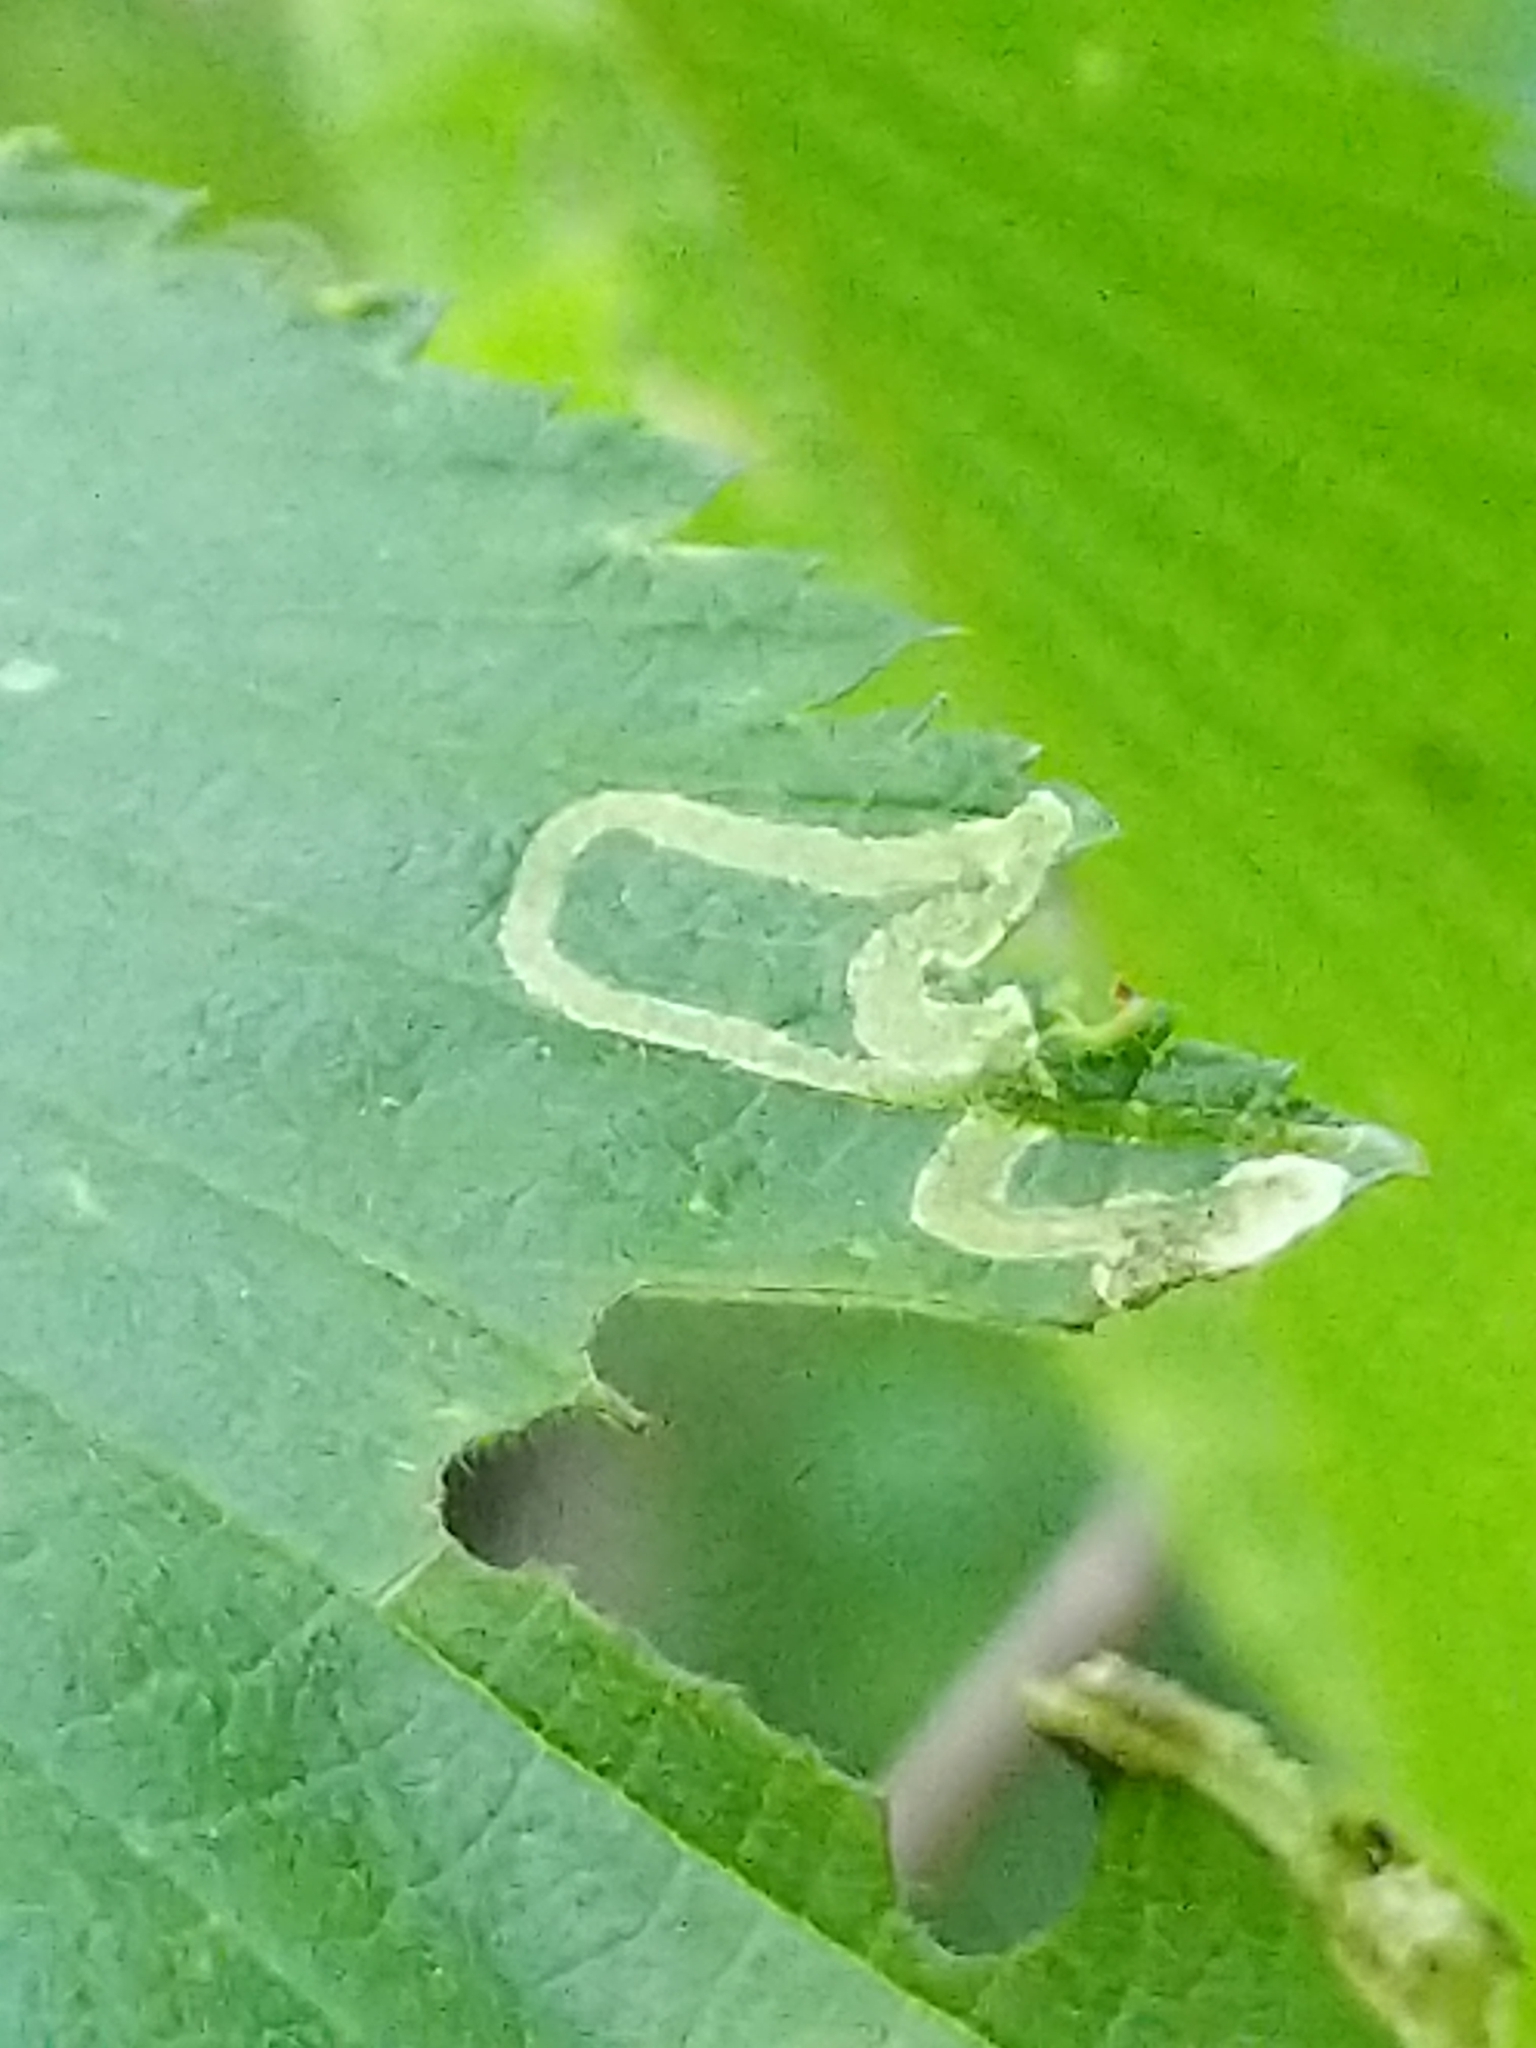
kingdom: Animalia
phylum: Arthropoda
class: Insecta
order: Diptera
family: Agromyzidae
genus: Agromyza
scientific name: Agromyza aristata
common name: Elm agromyzid leafminer
